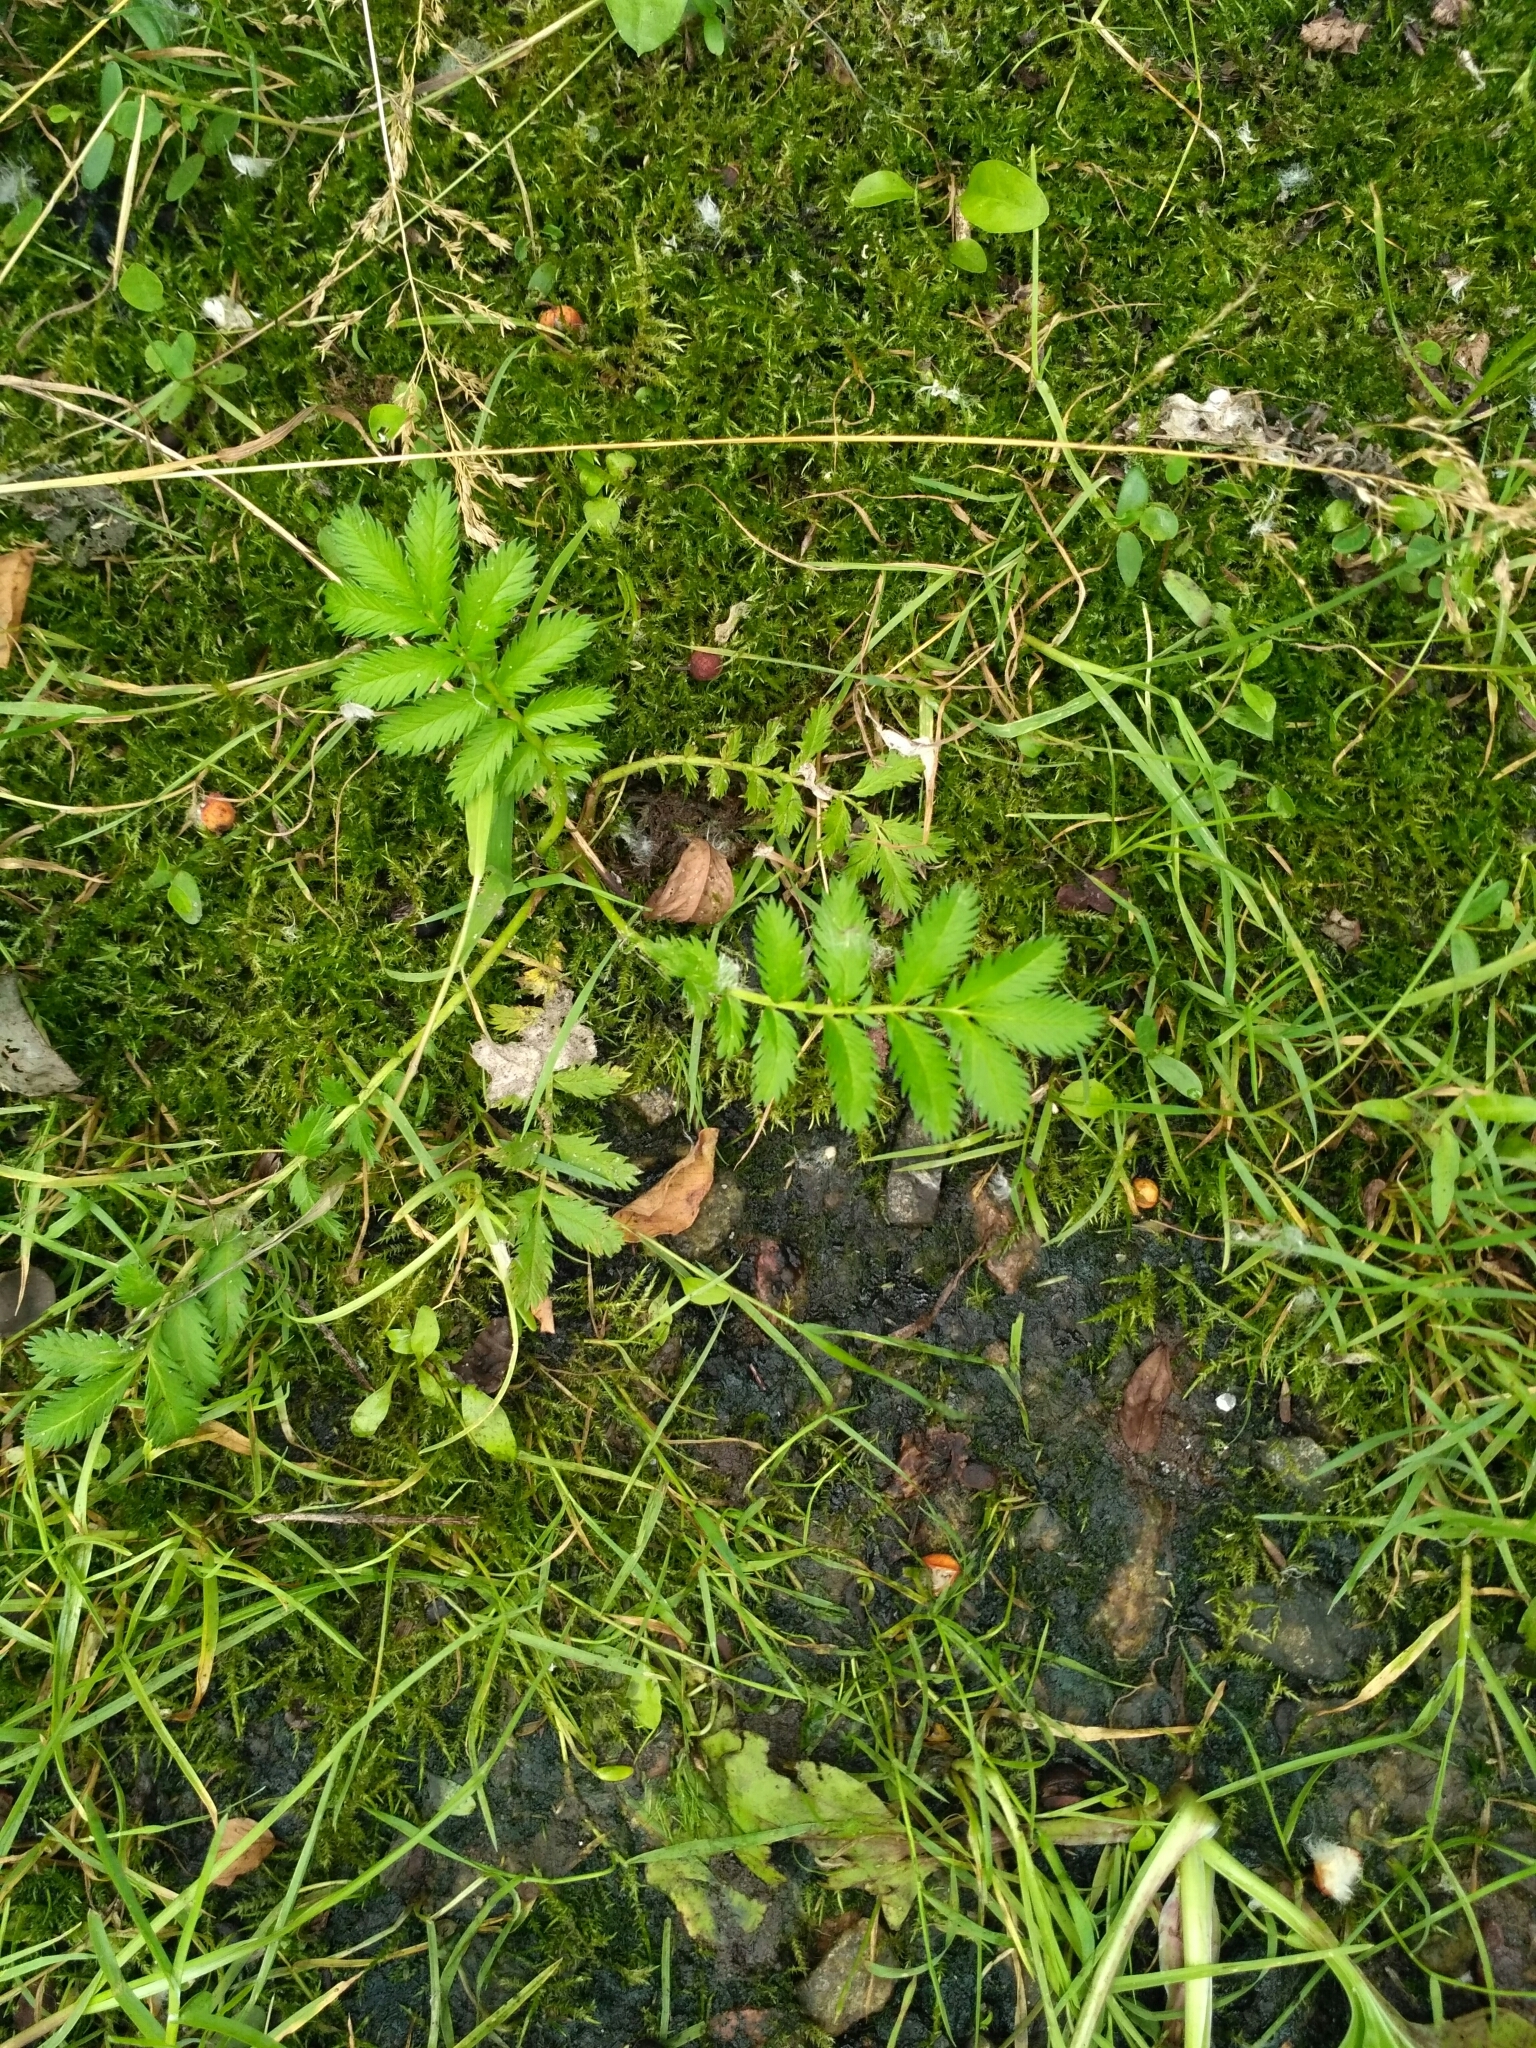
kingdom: Plantae
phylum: Tracheophyta
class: Magnoliopsida
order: Rosales
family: Rosaceae
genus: Argentina
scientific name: Argentina anserina
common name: Common silverweed
